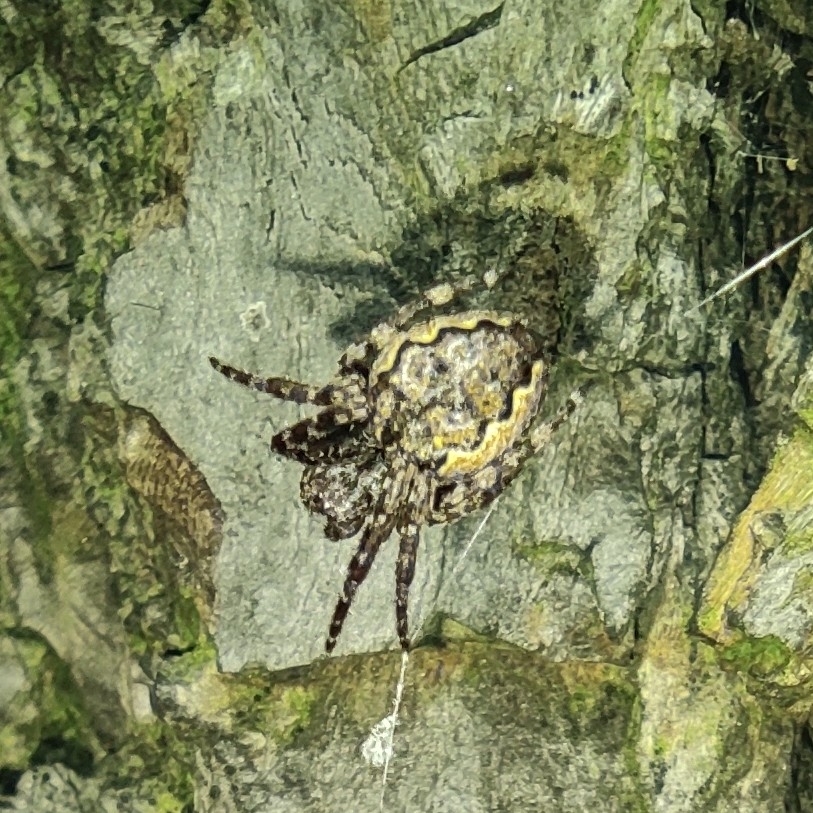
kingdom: Animalia
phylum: Arthropoda
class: Arachnida
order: Araneae
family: Araneidae
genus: Nuctenea
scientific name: Nuctenea umbratica
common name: Toad spider
